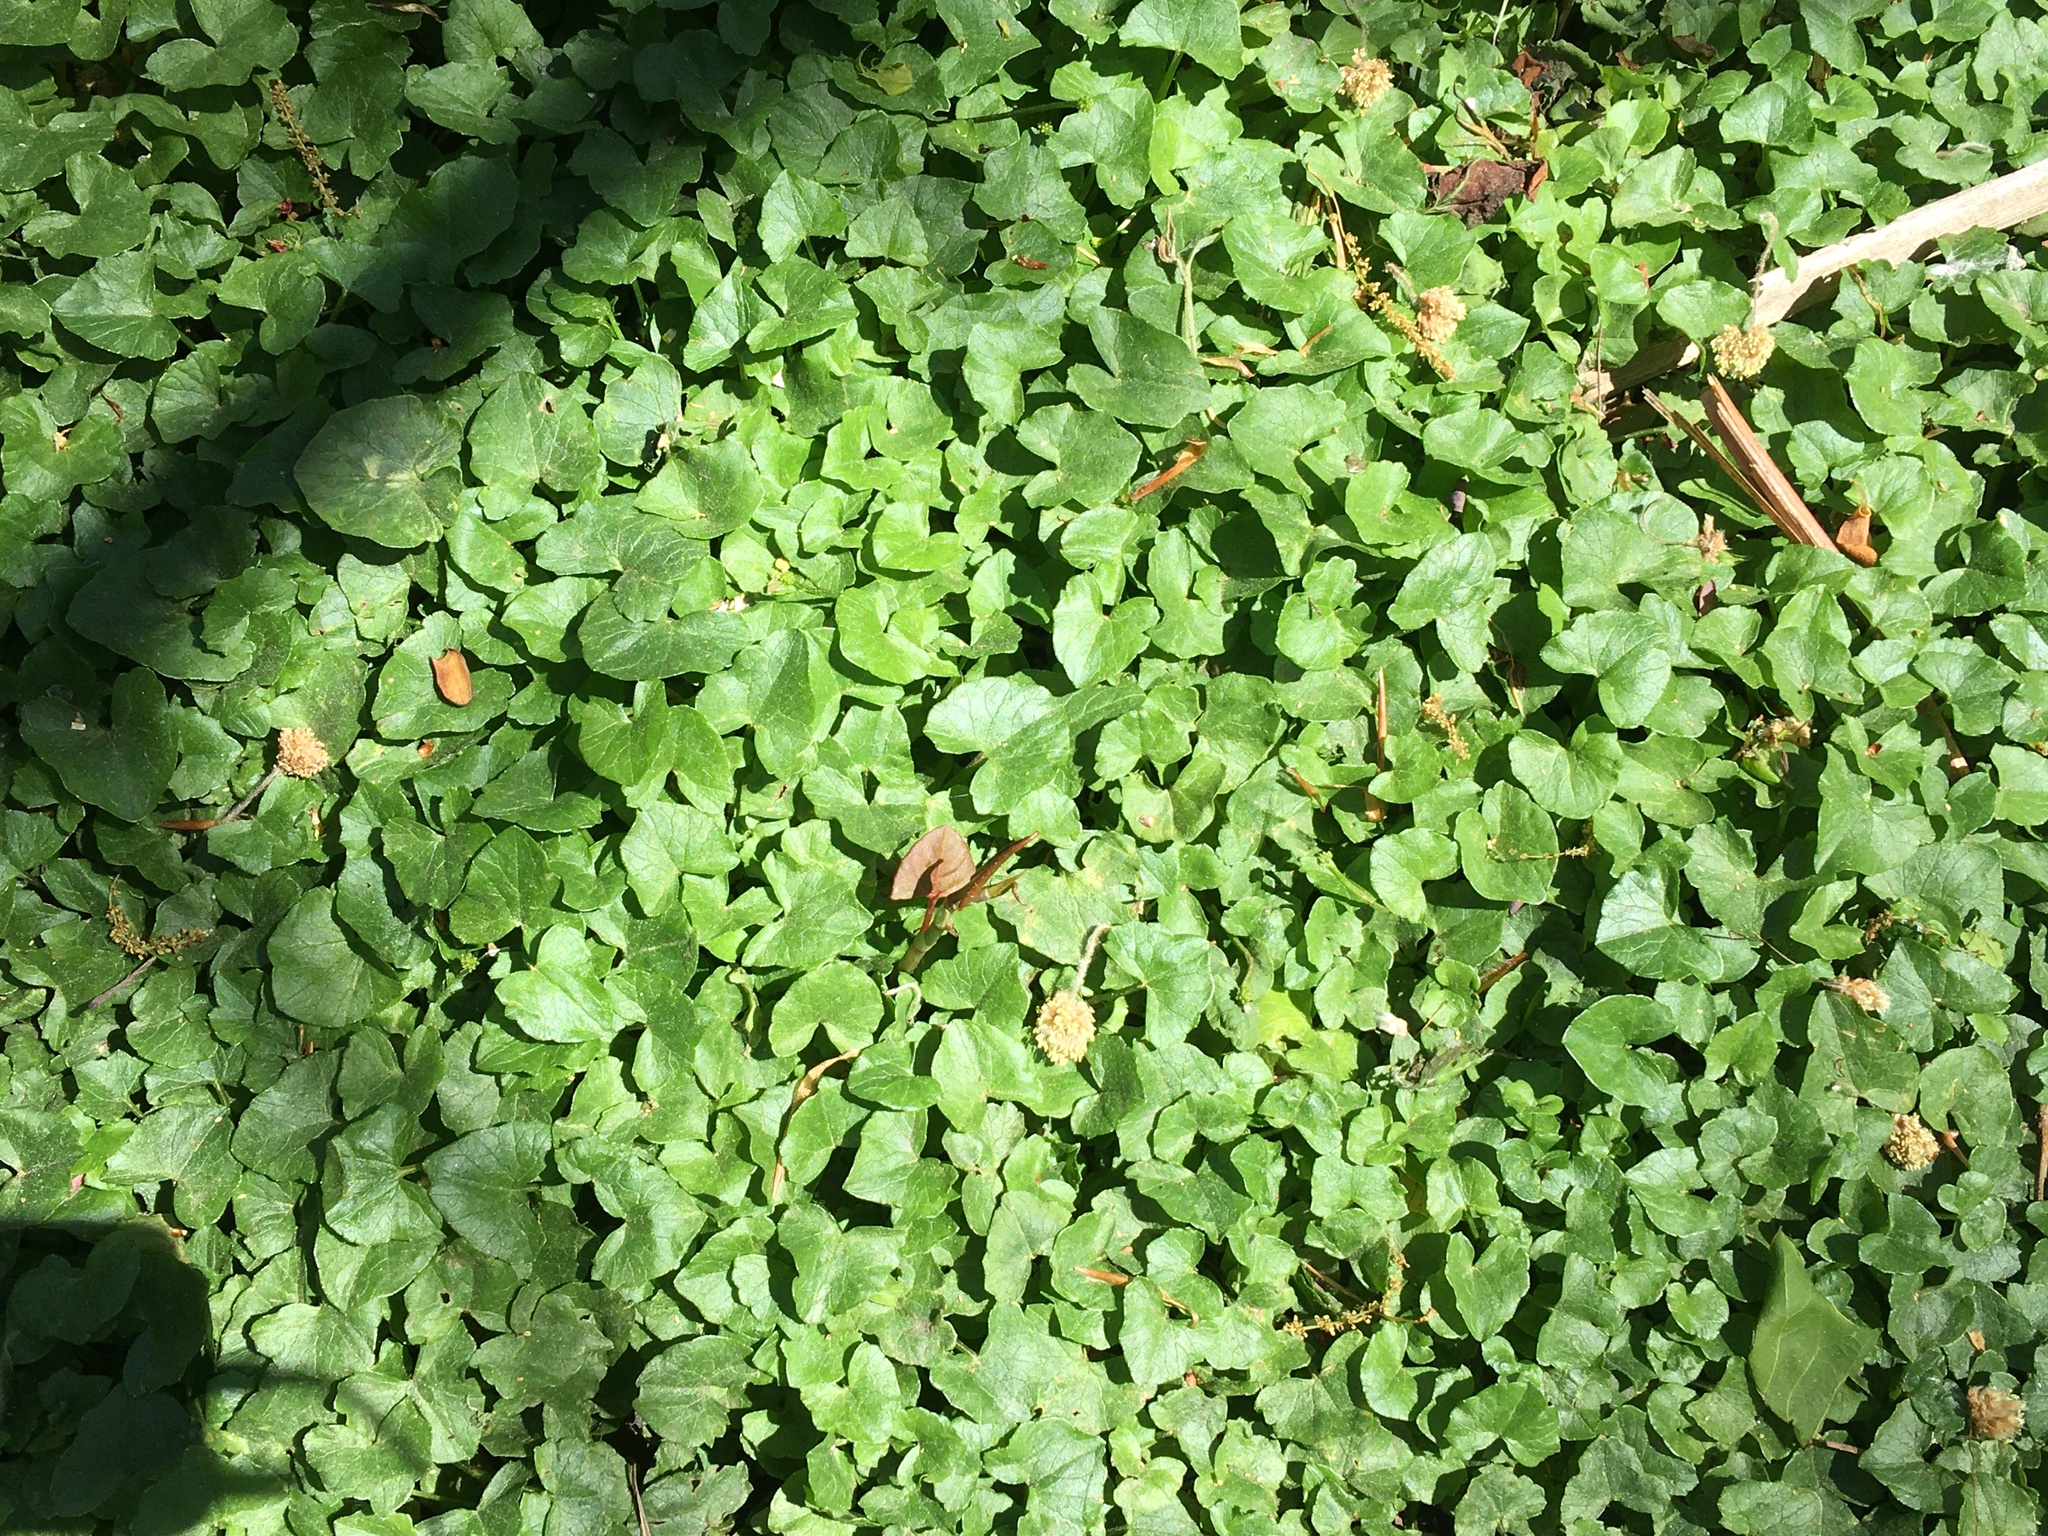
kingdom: Plantae
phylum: Tracheophyta
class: Magnoliopsida
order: Ranunculales
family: Ranunculaceae
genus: Ficaria
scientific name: Ficaria verna
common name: Lesser celandine
